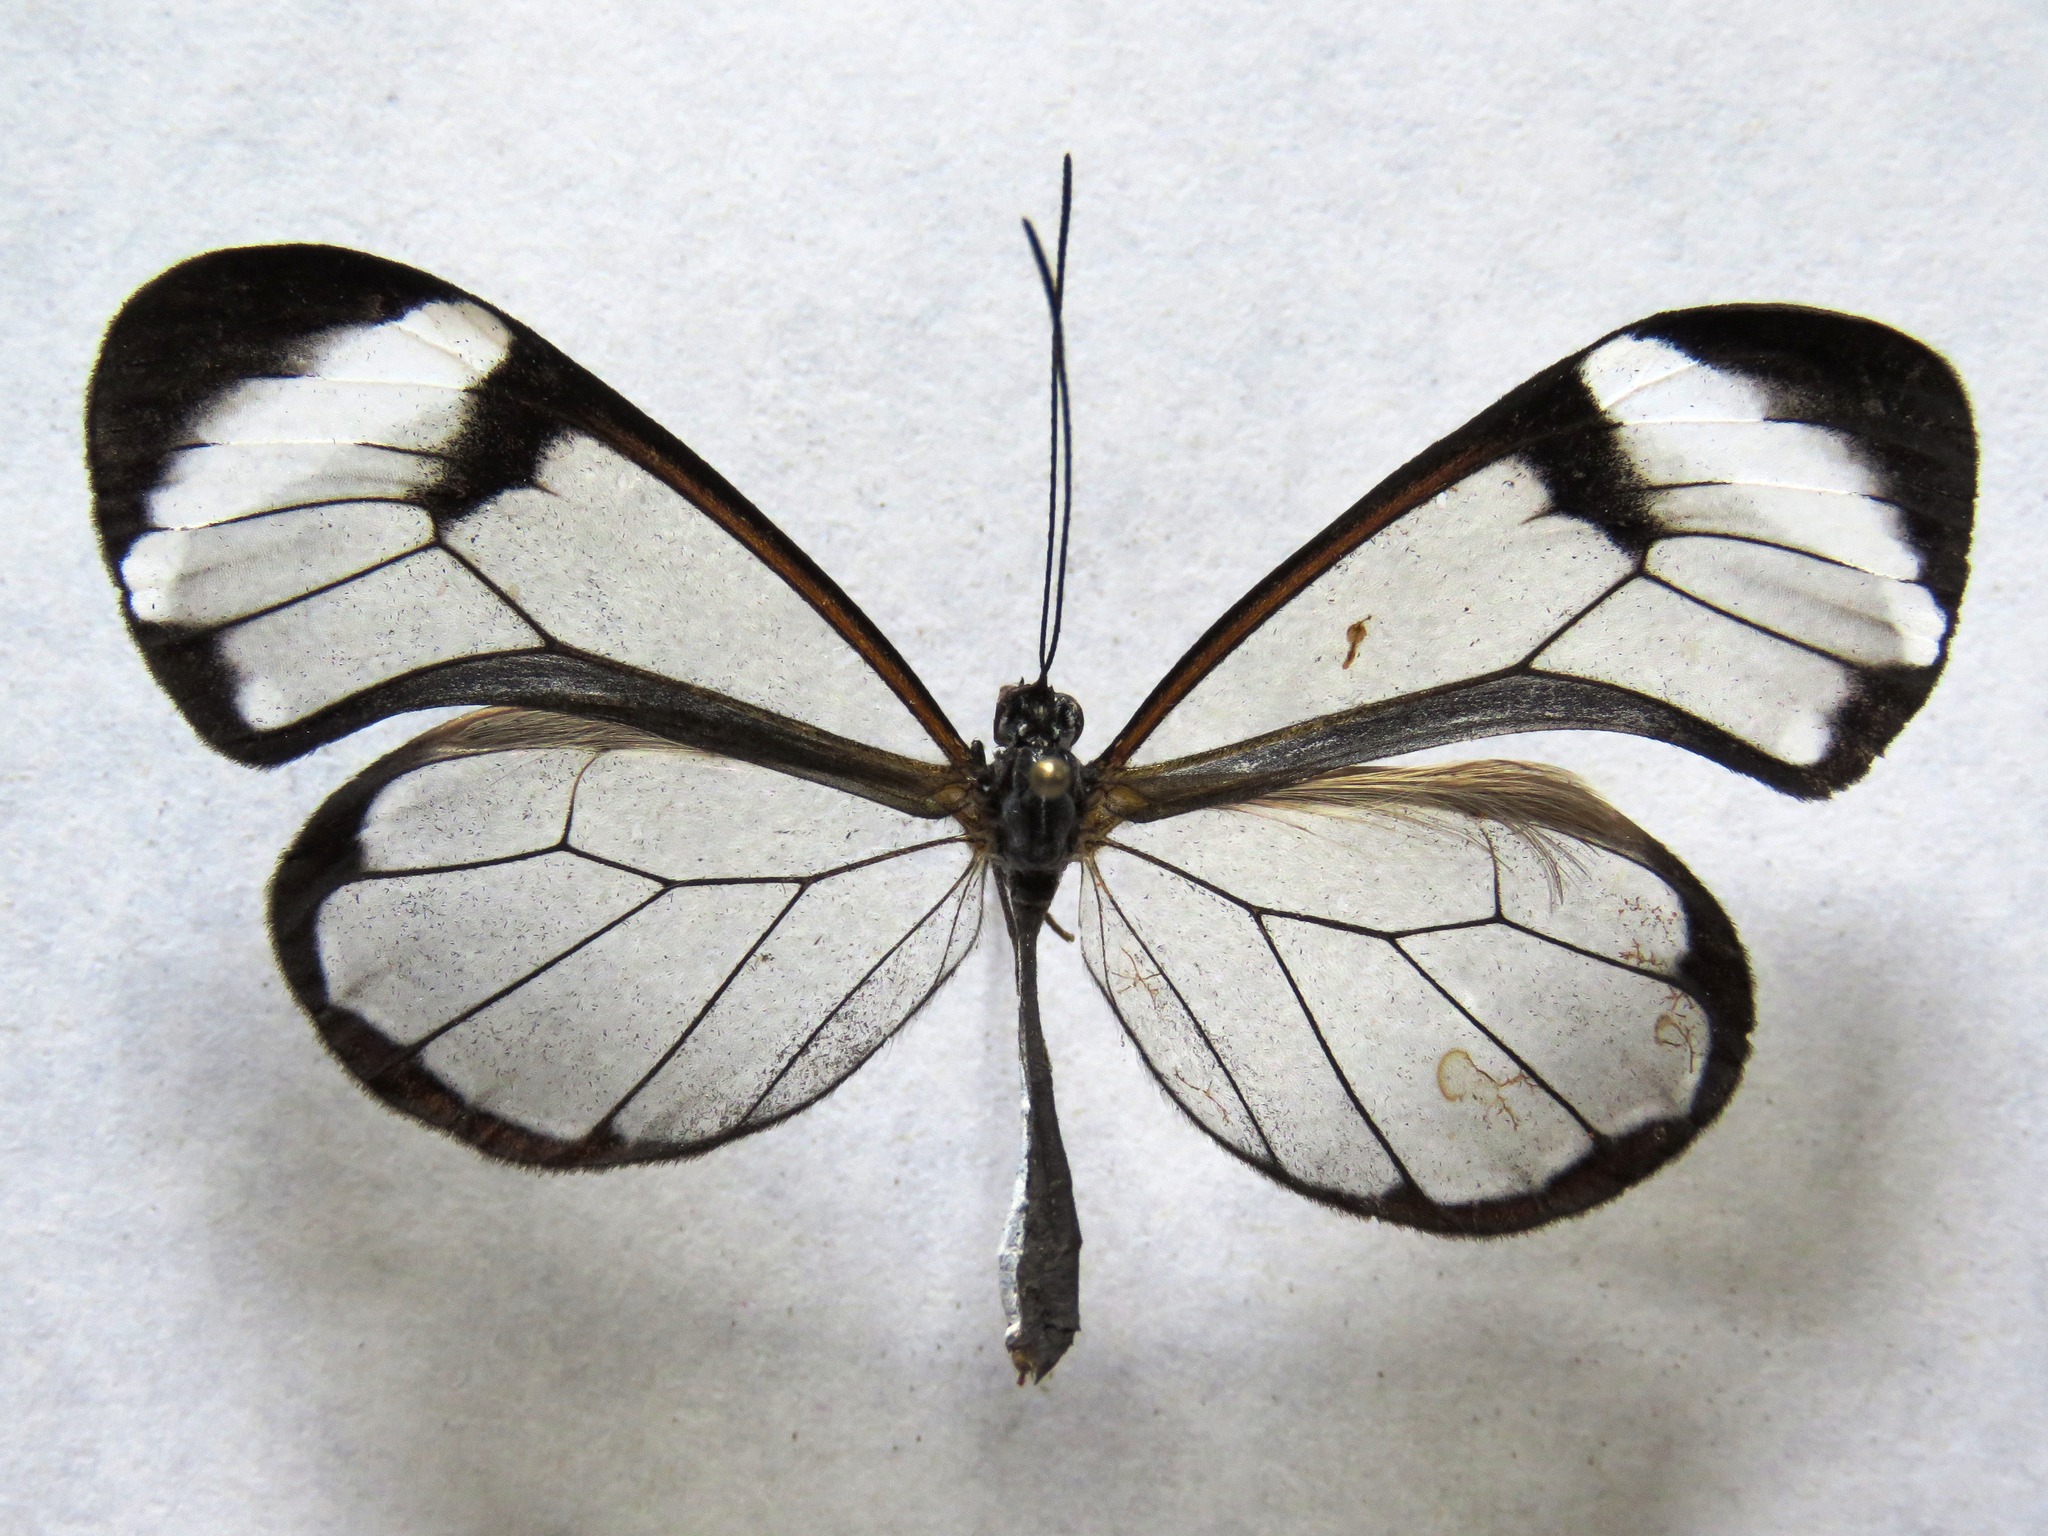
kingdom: Animalia
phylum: Arthropoda
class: Insecta
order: Lepidoptera
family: Nymphalidae
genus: Greta
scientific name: Greta morgane
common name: Thick-tipped greta
